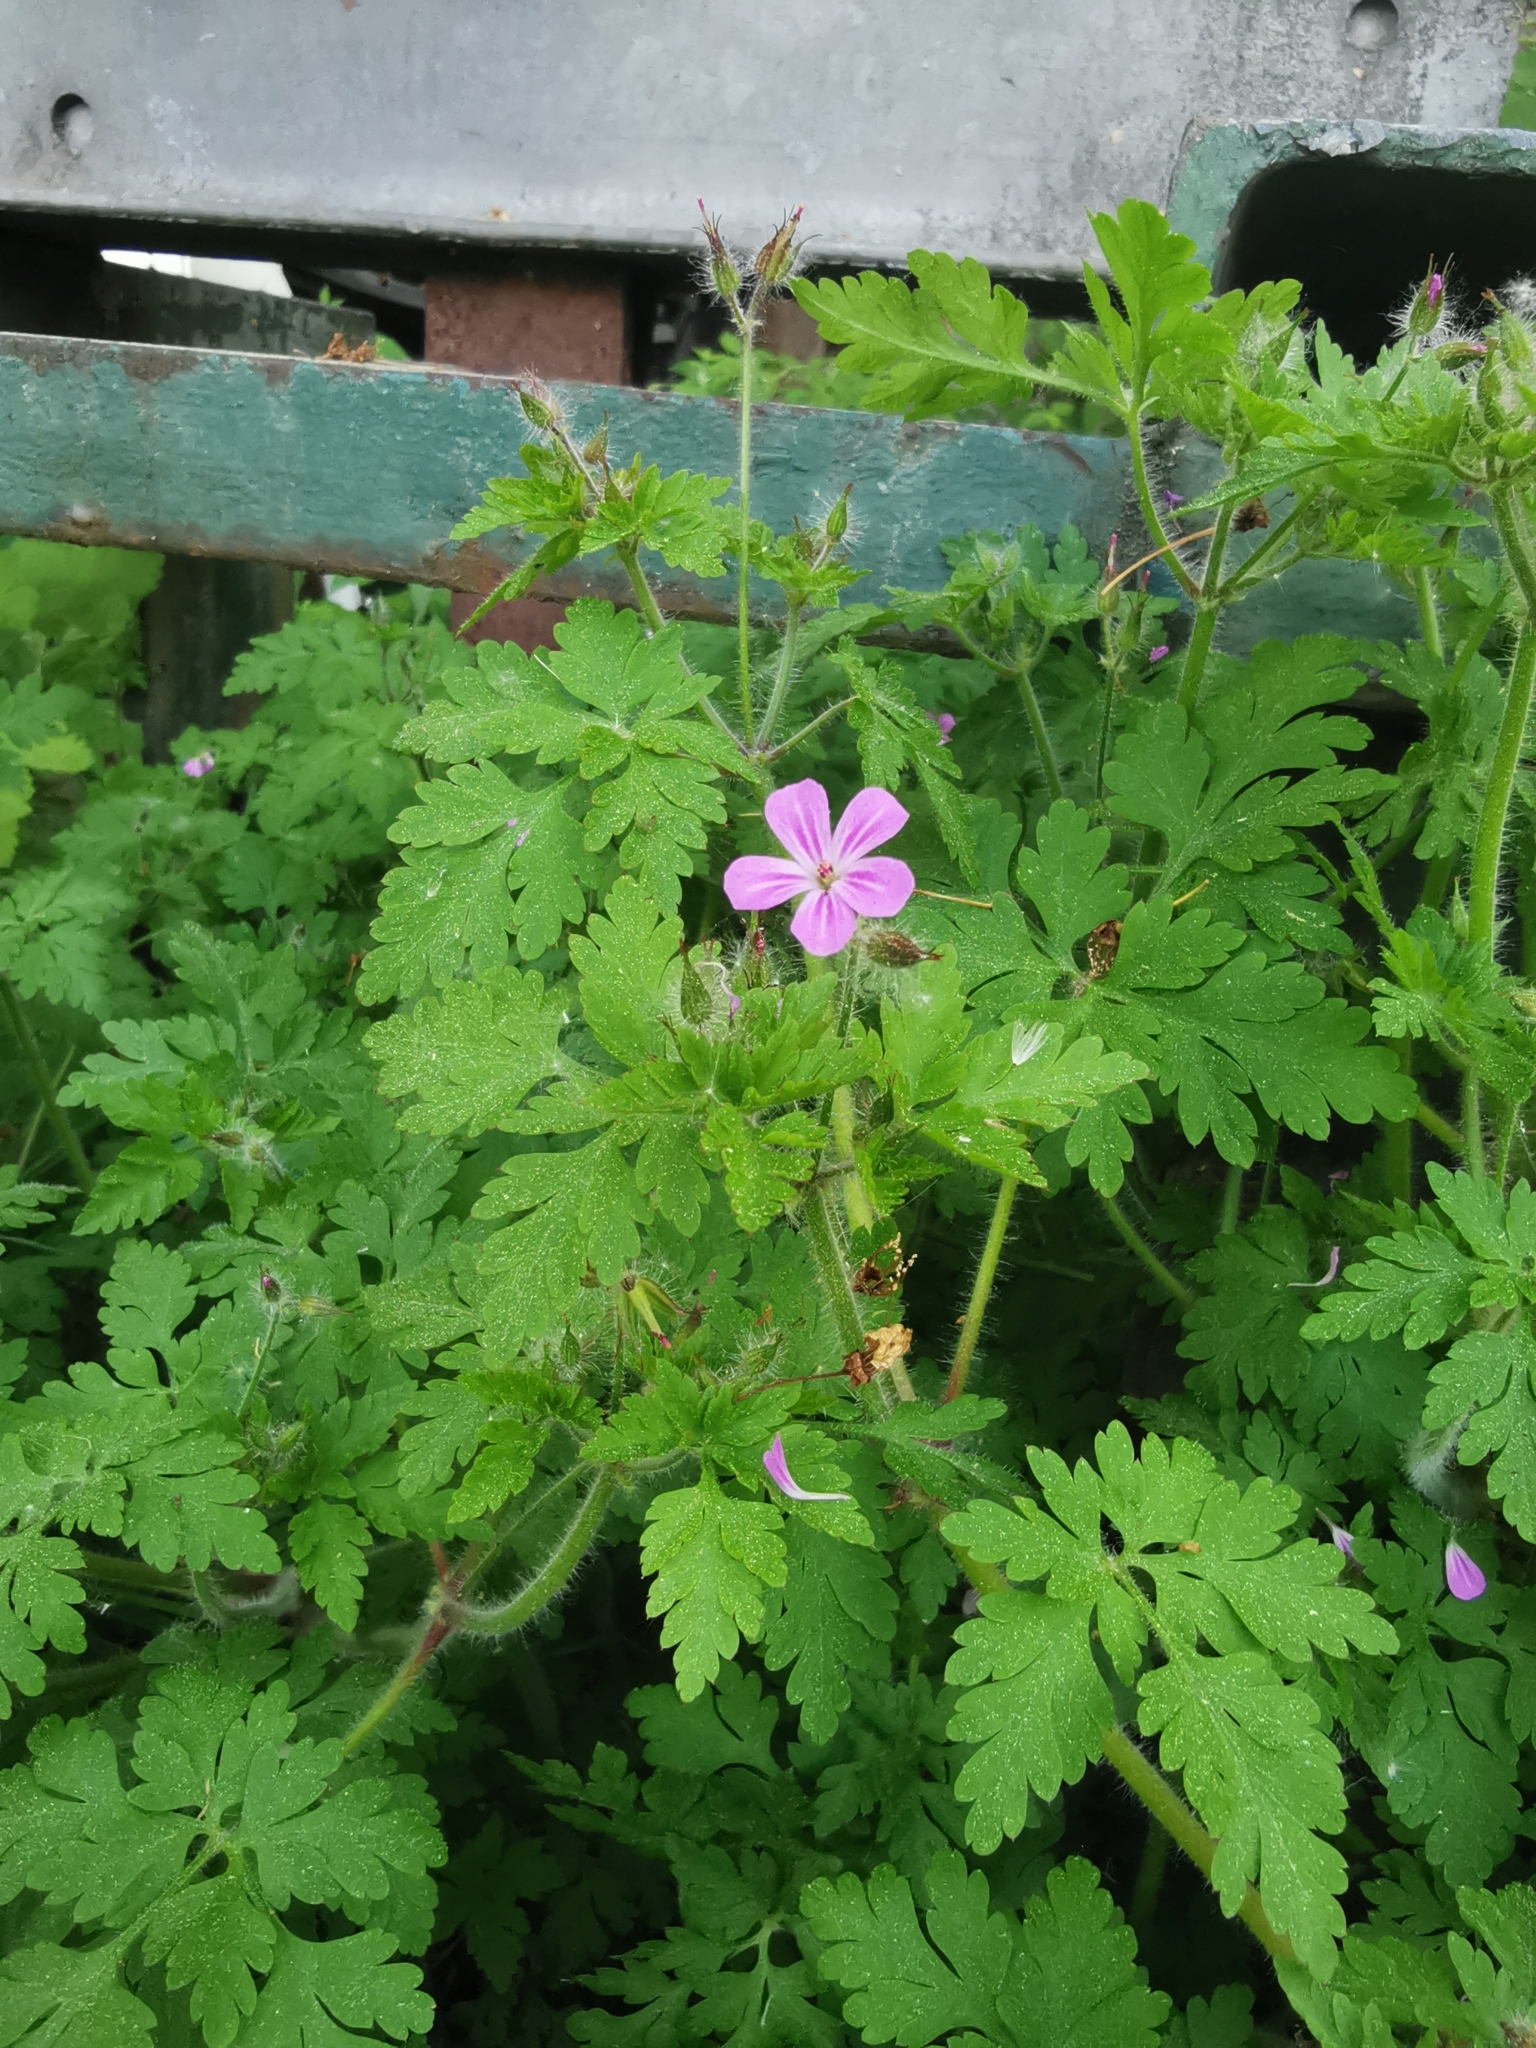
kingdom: Plantae
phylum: Tracheophyta
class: Magnoliopsida
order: Geraniales
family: Geraniaceae
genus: Geranium
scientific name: Geranium robertianum
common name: Herb-robert
